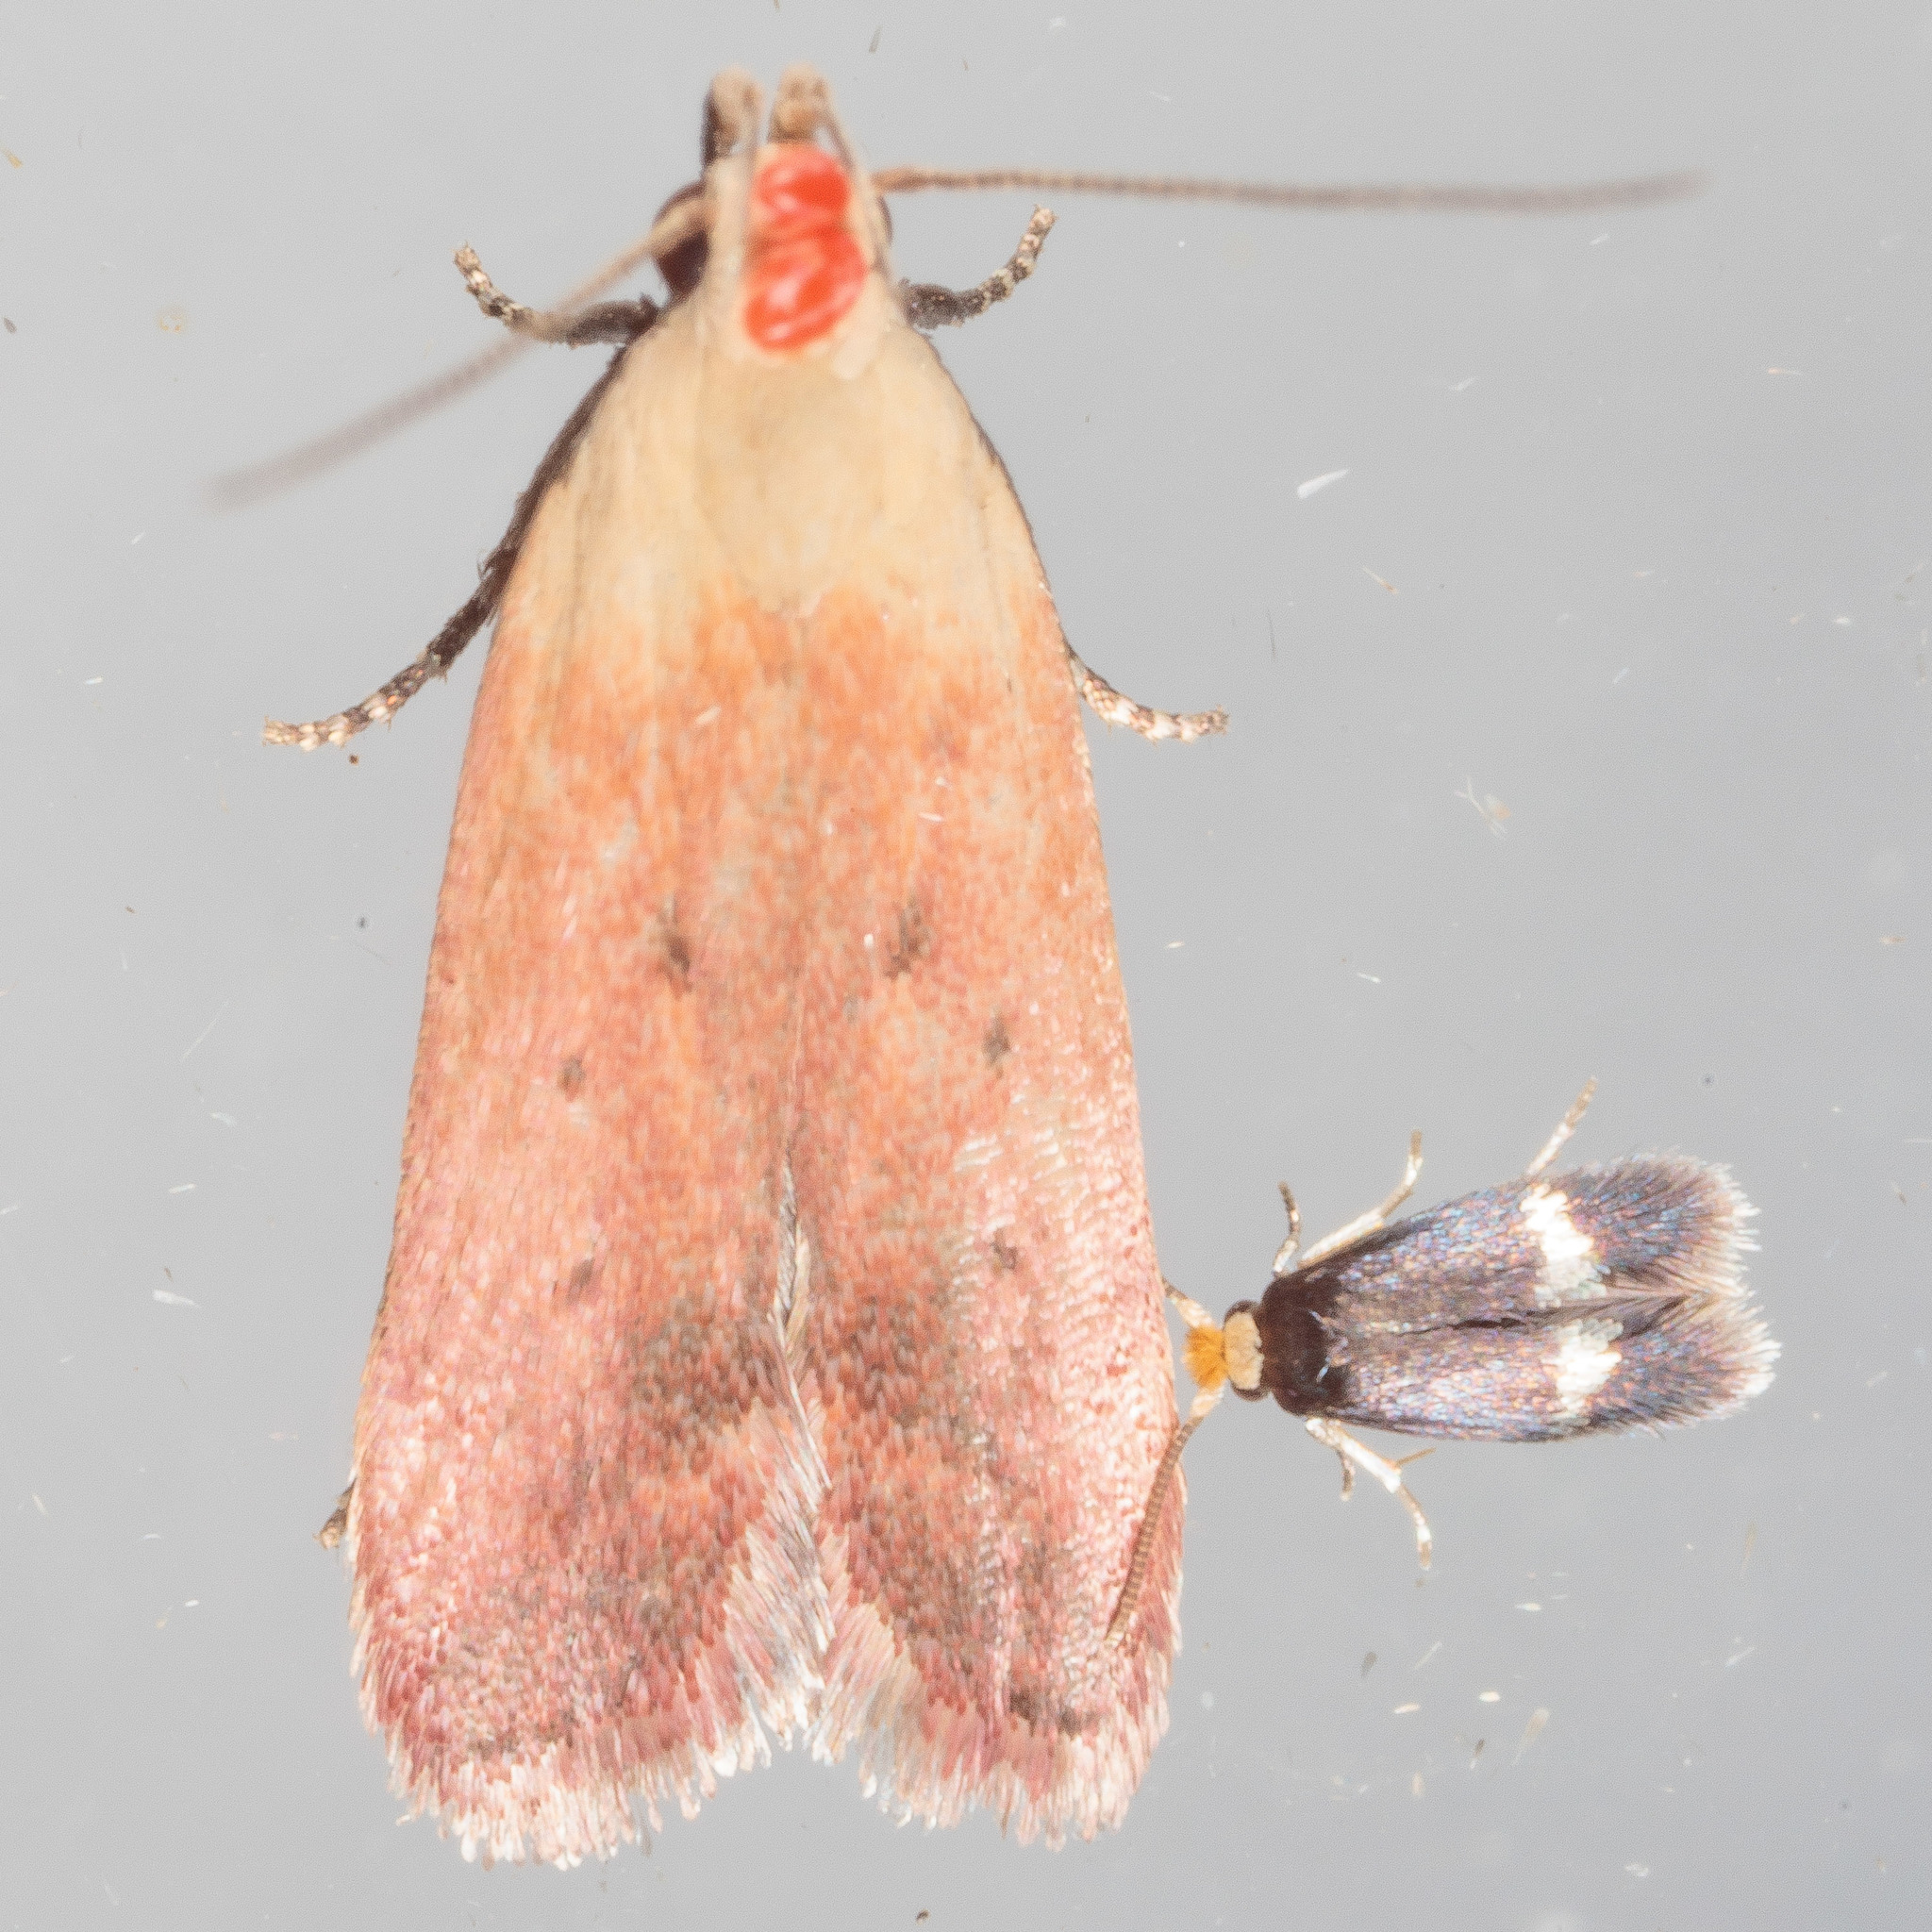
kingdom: Animalia
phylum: Arthropoda
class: Insecta
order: Lepidoptera
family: Gelechiidae
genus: Anacampsis
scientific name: Anacampsis fullonella
